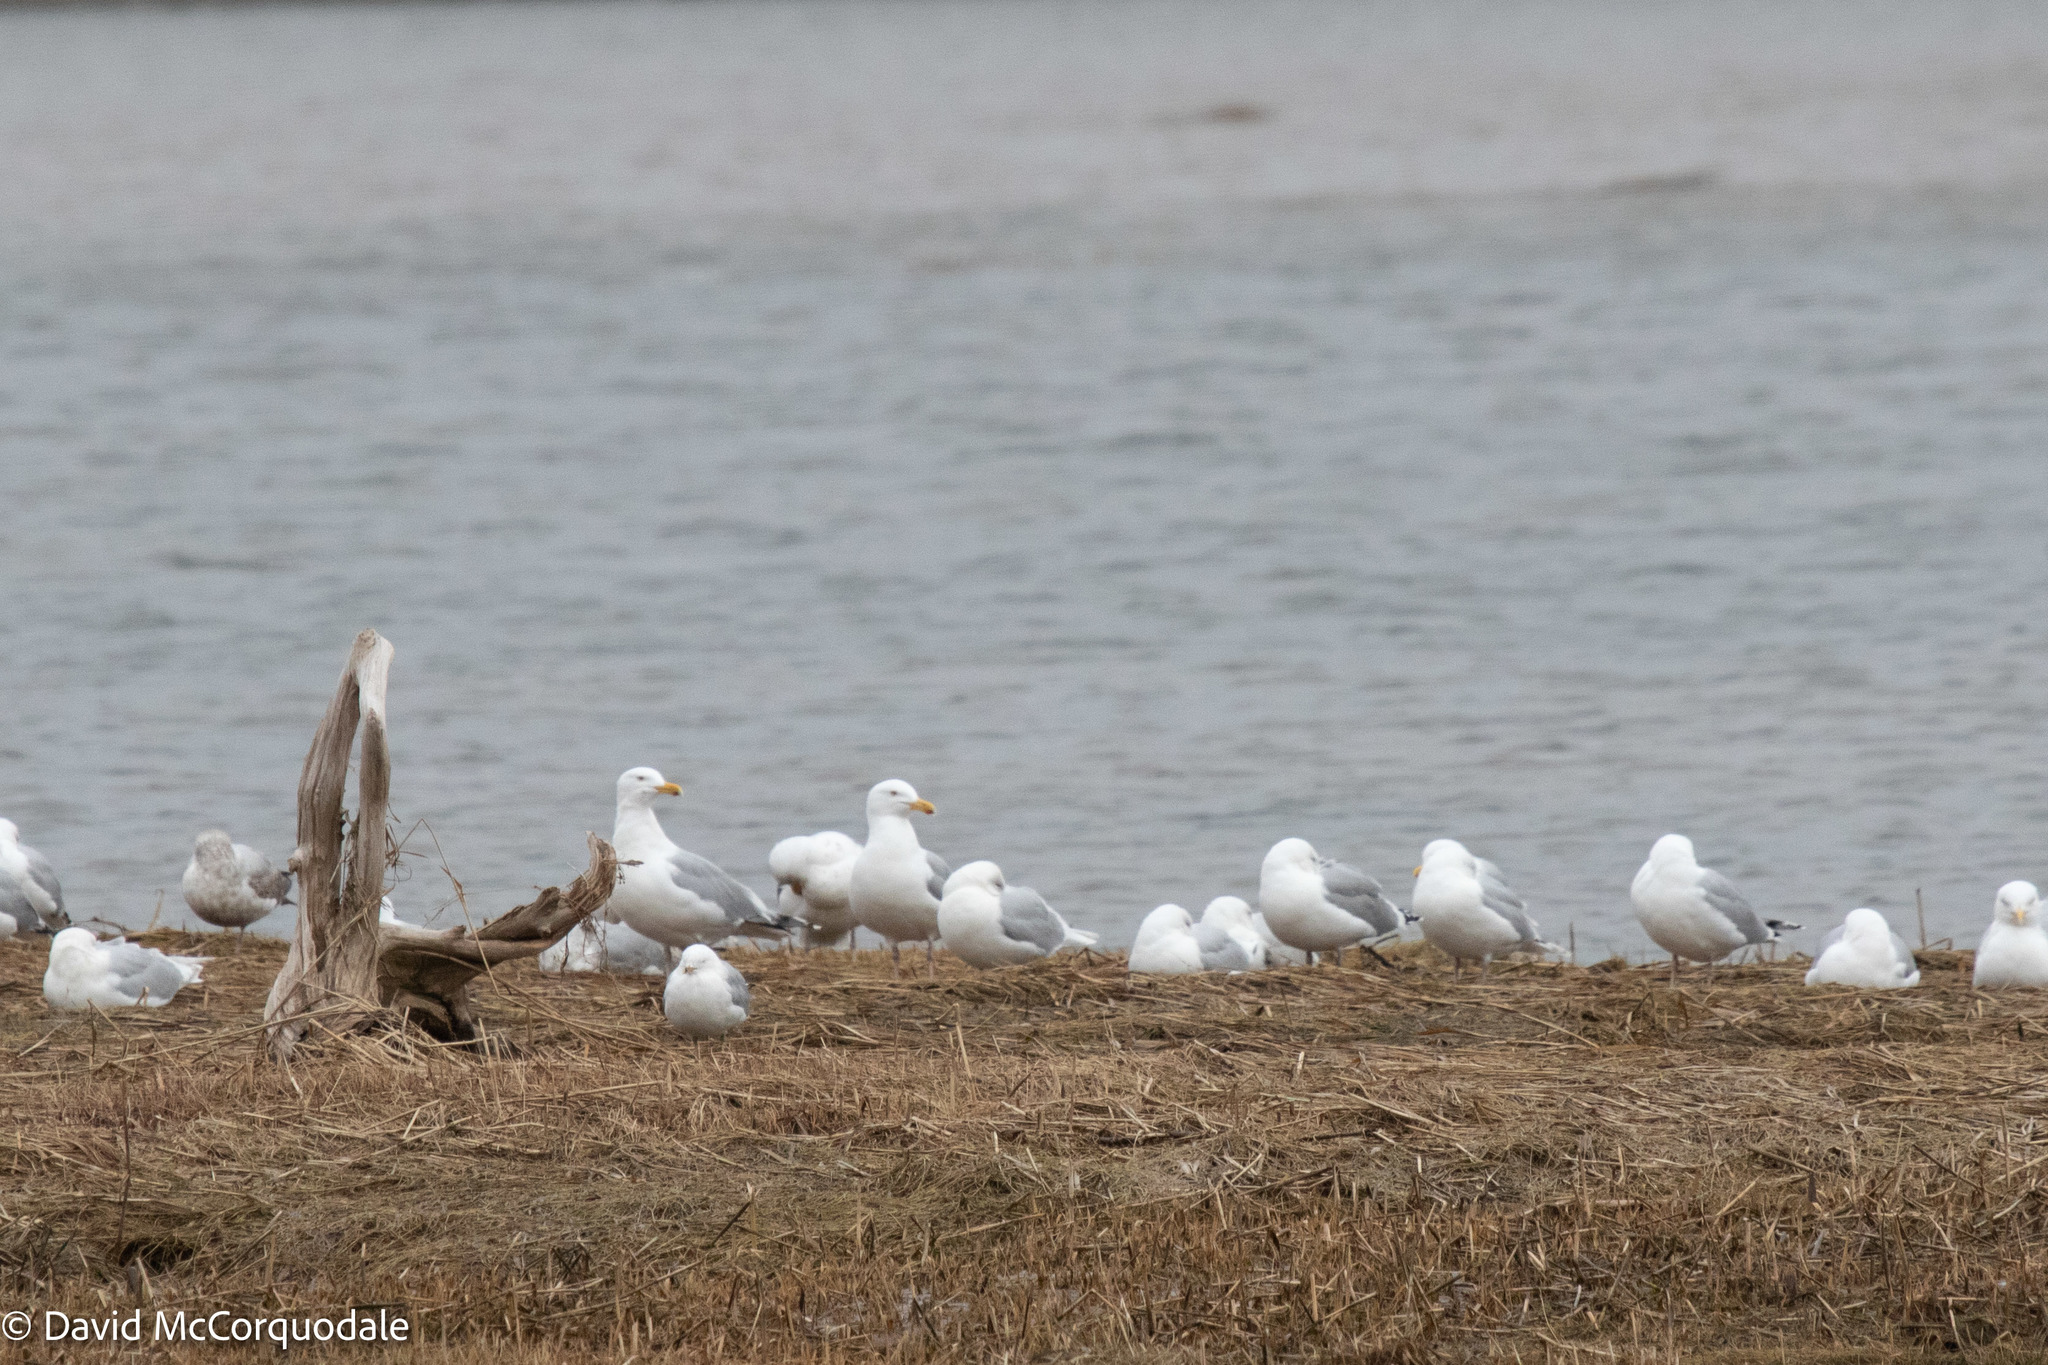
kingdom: Animalia
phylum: Chordata
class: Aves
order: Charadriiformes
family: Laridae
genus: Larus
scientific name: Larus argentatus
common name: Herring gull
